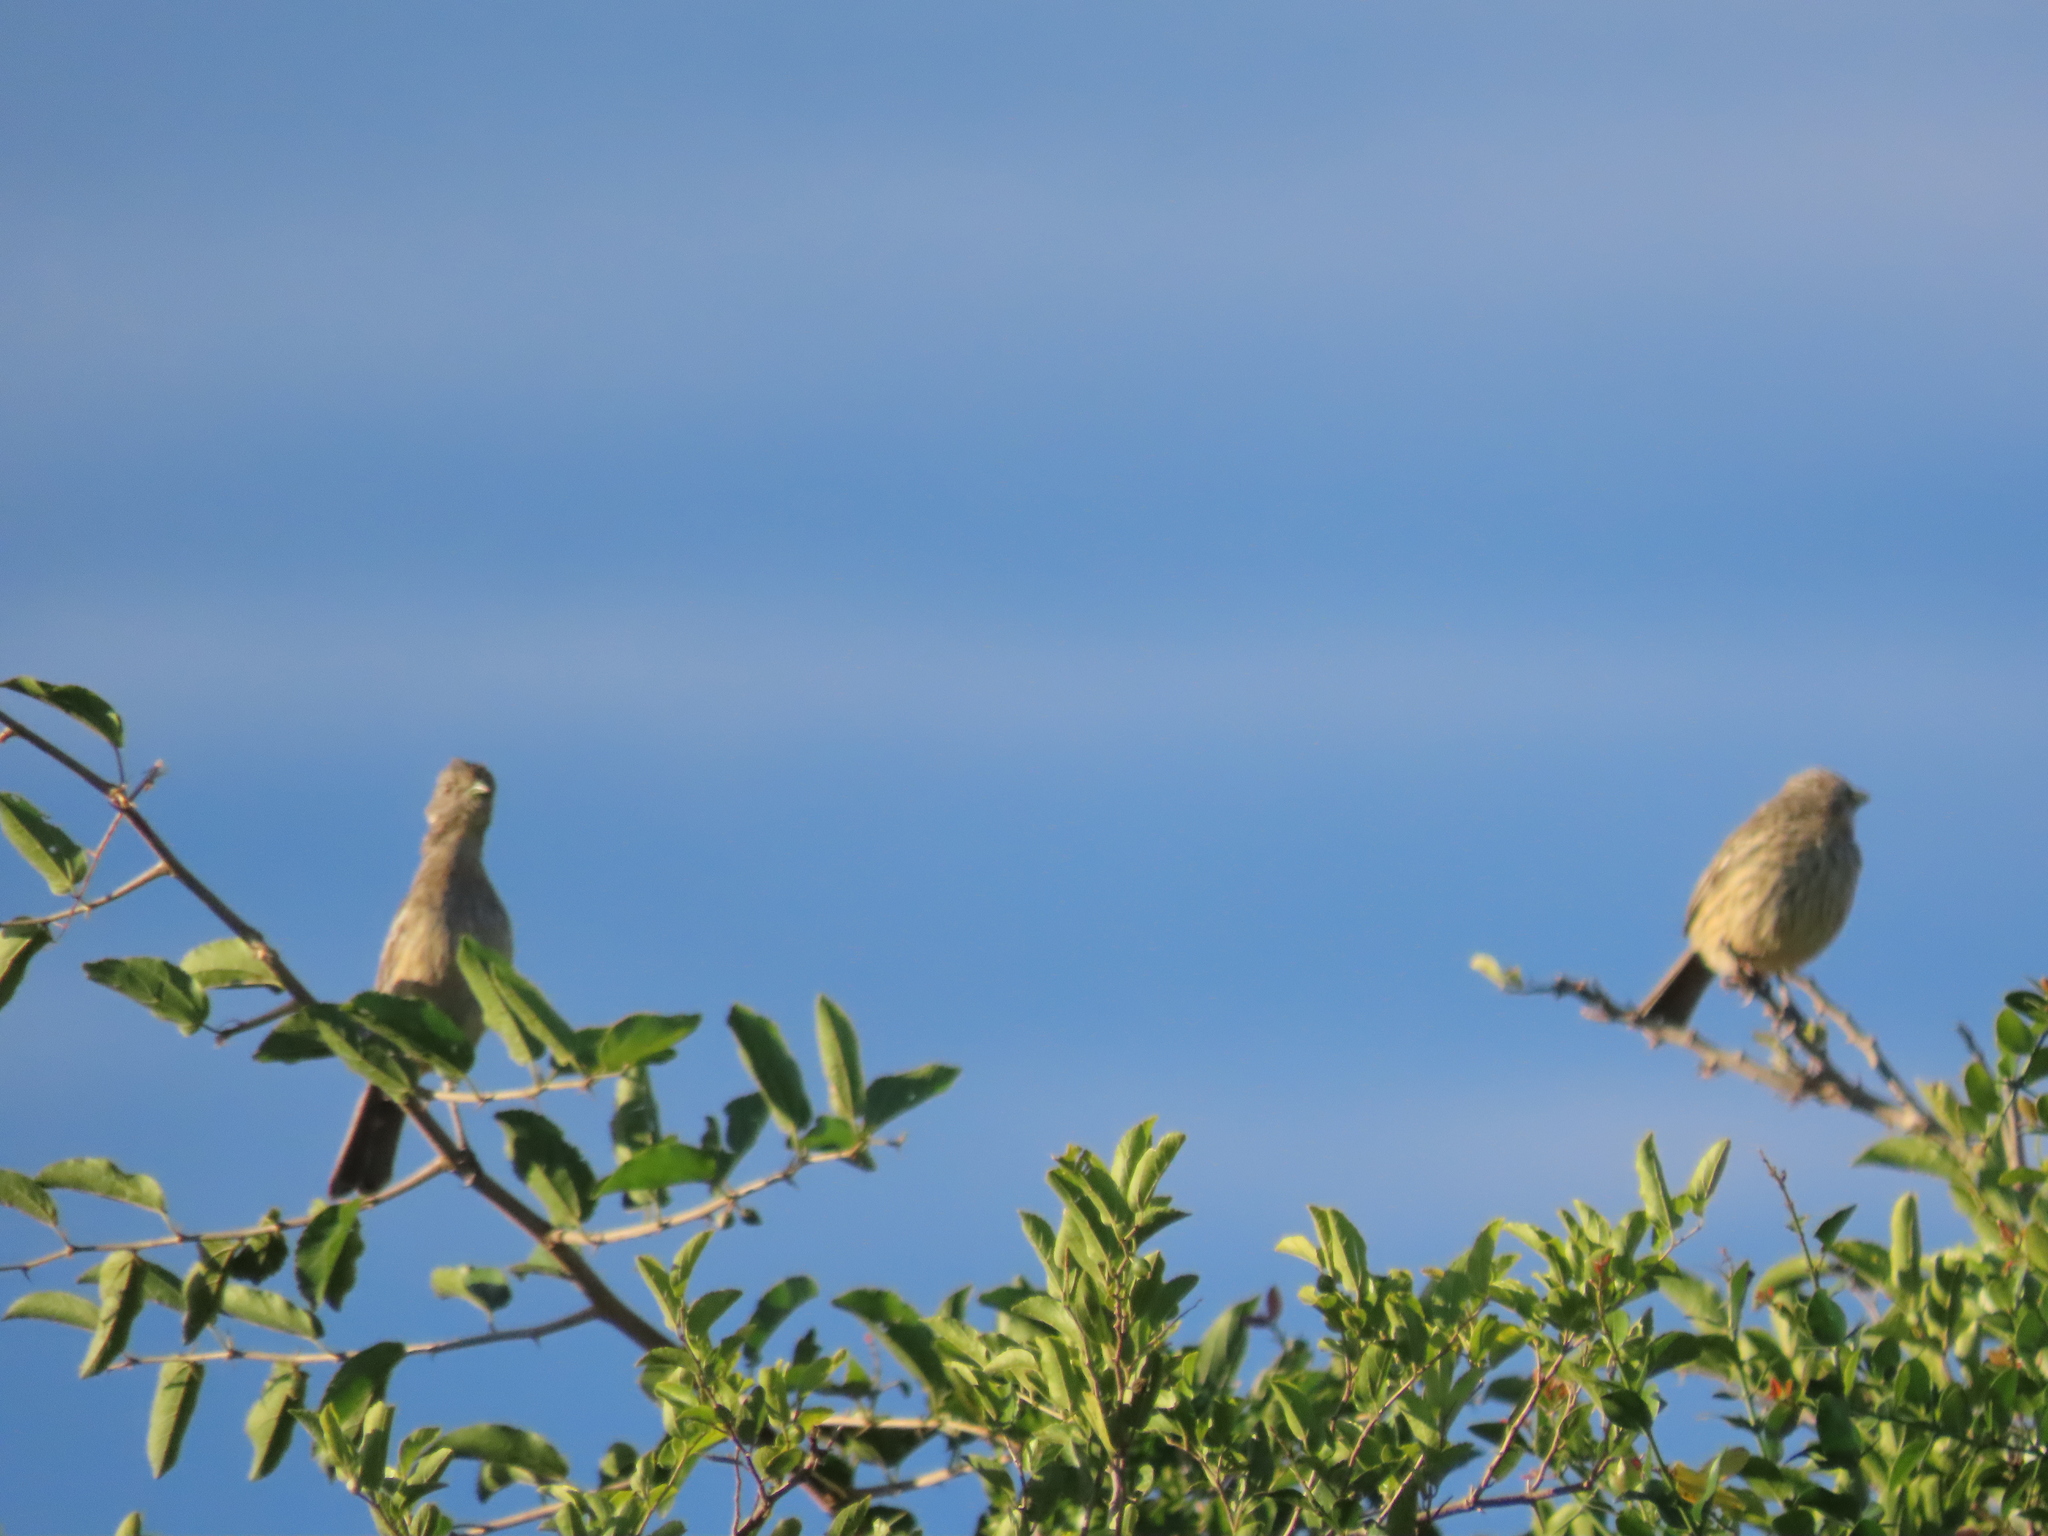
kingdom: Animalia
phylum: Chordata
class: Aves
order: Passeriformes
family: Cotingidae
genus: Phytotoma
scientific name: Phytotoma rutila
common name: White-tipped plantcutter
